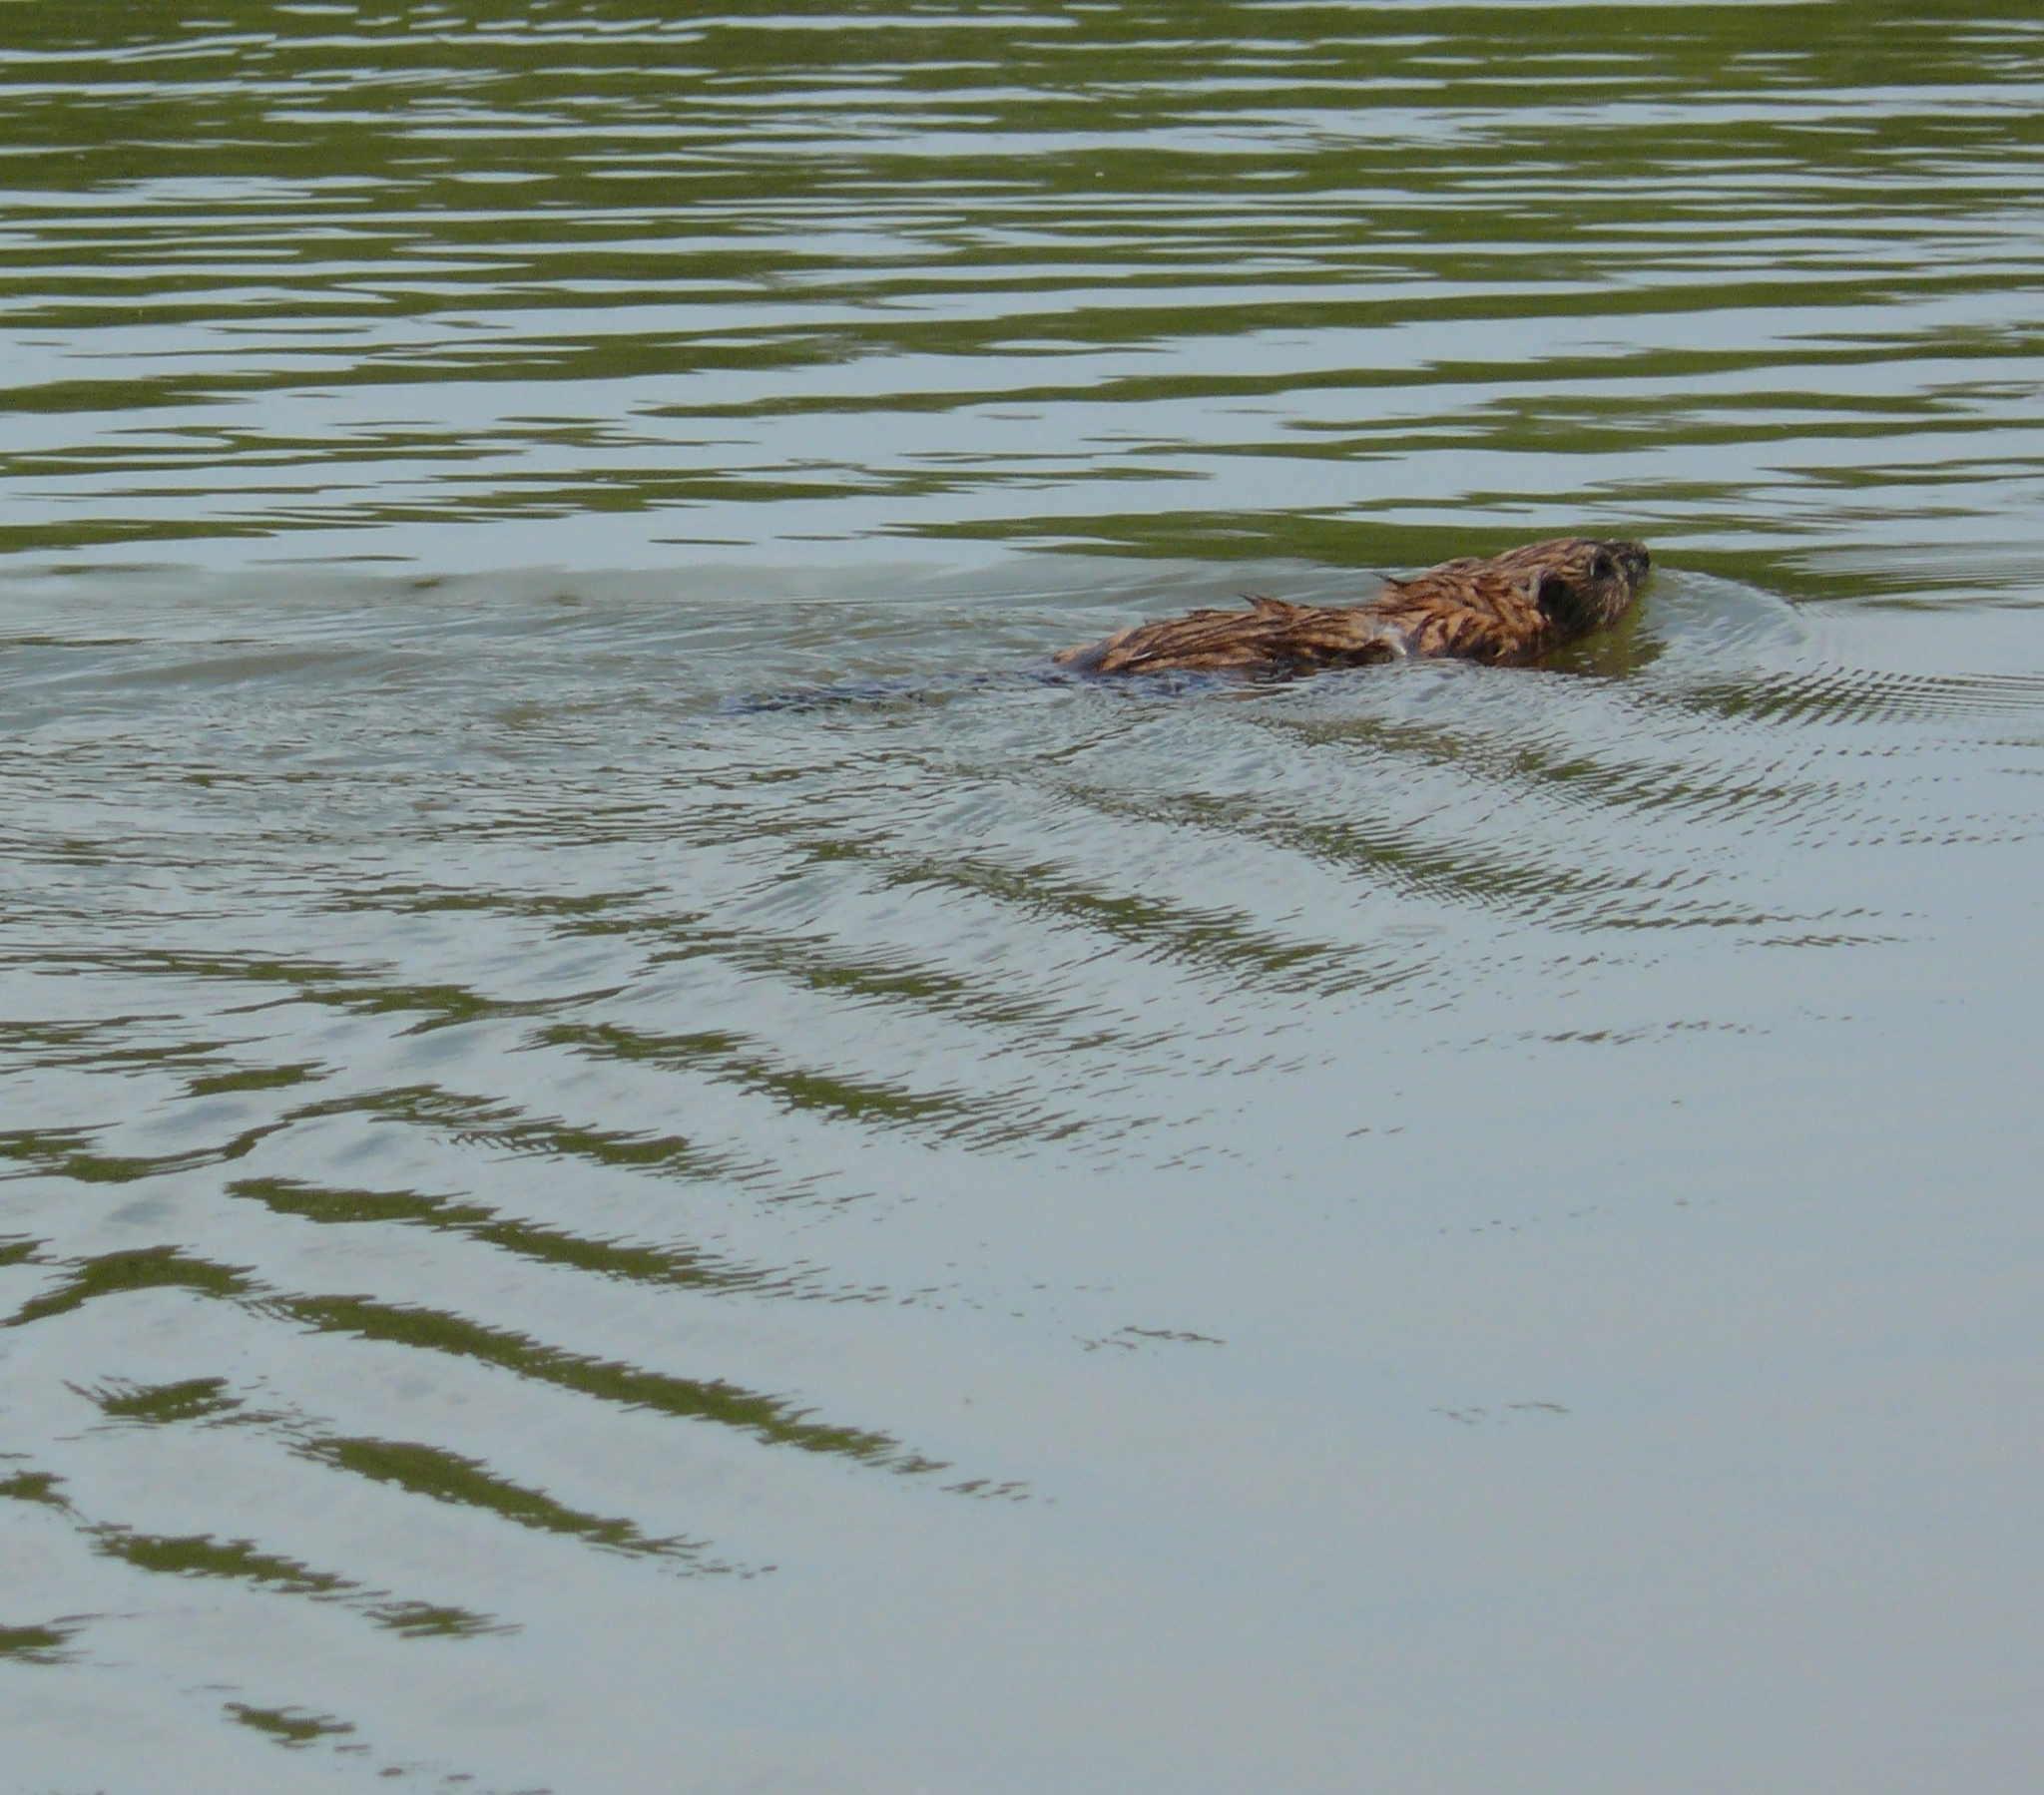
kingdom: Animalia
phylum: Chordata
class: Mammalia
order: Rodentia
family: Cricetidae
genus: Ondatra
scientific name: Ondatra zibethicus
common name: Muskrat
